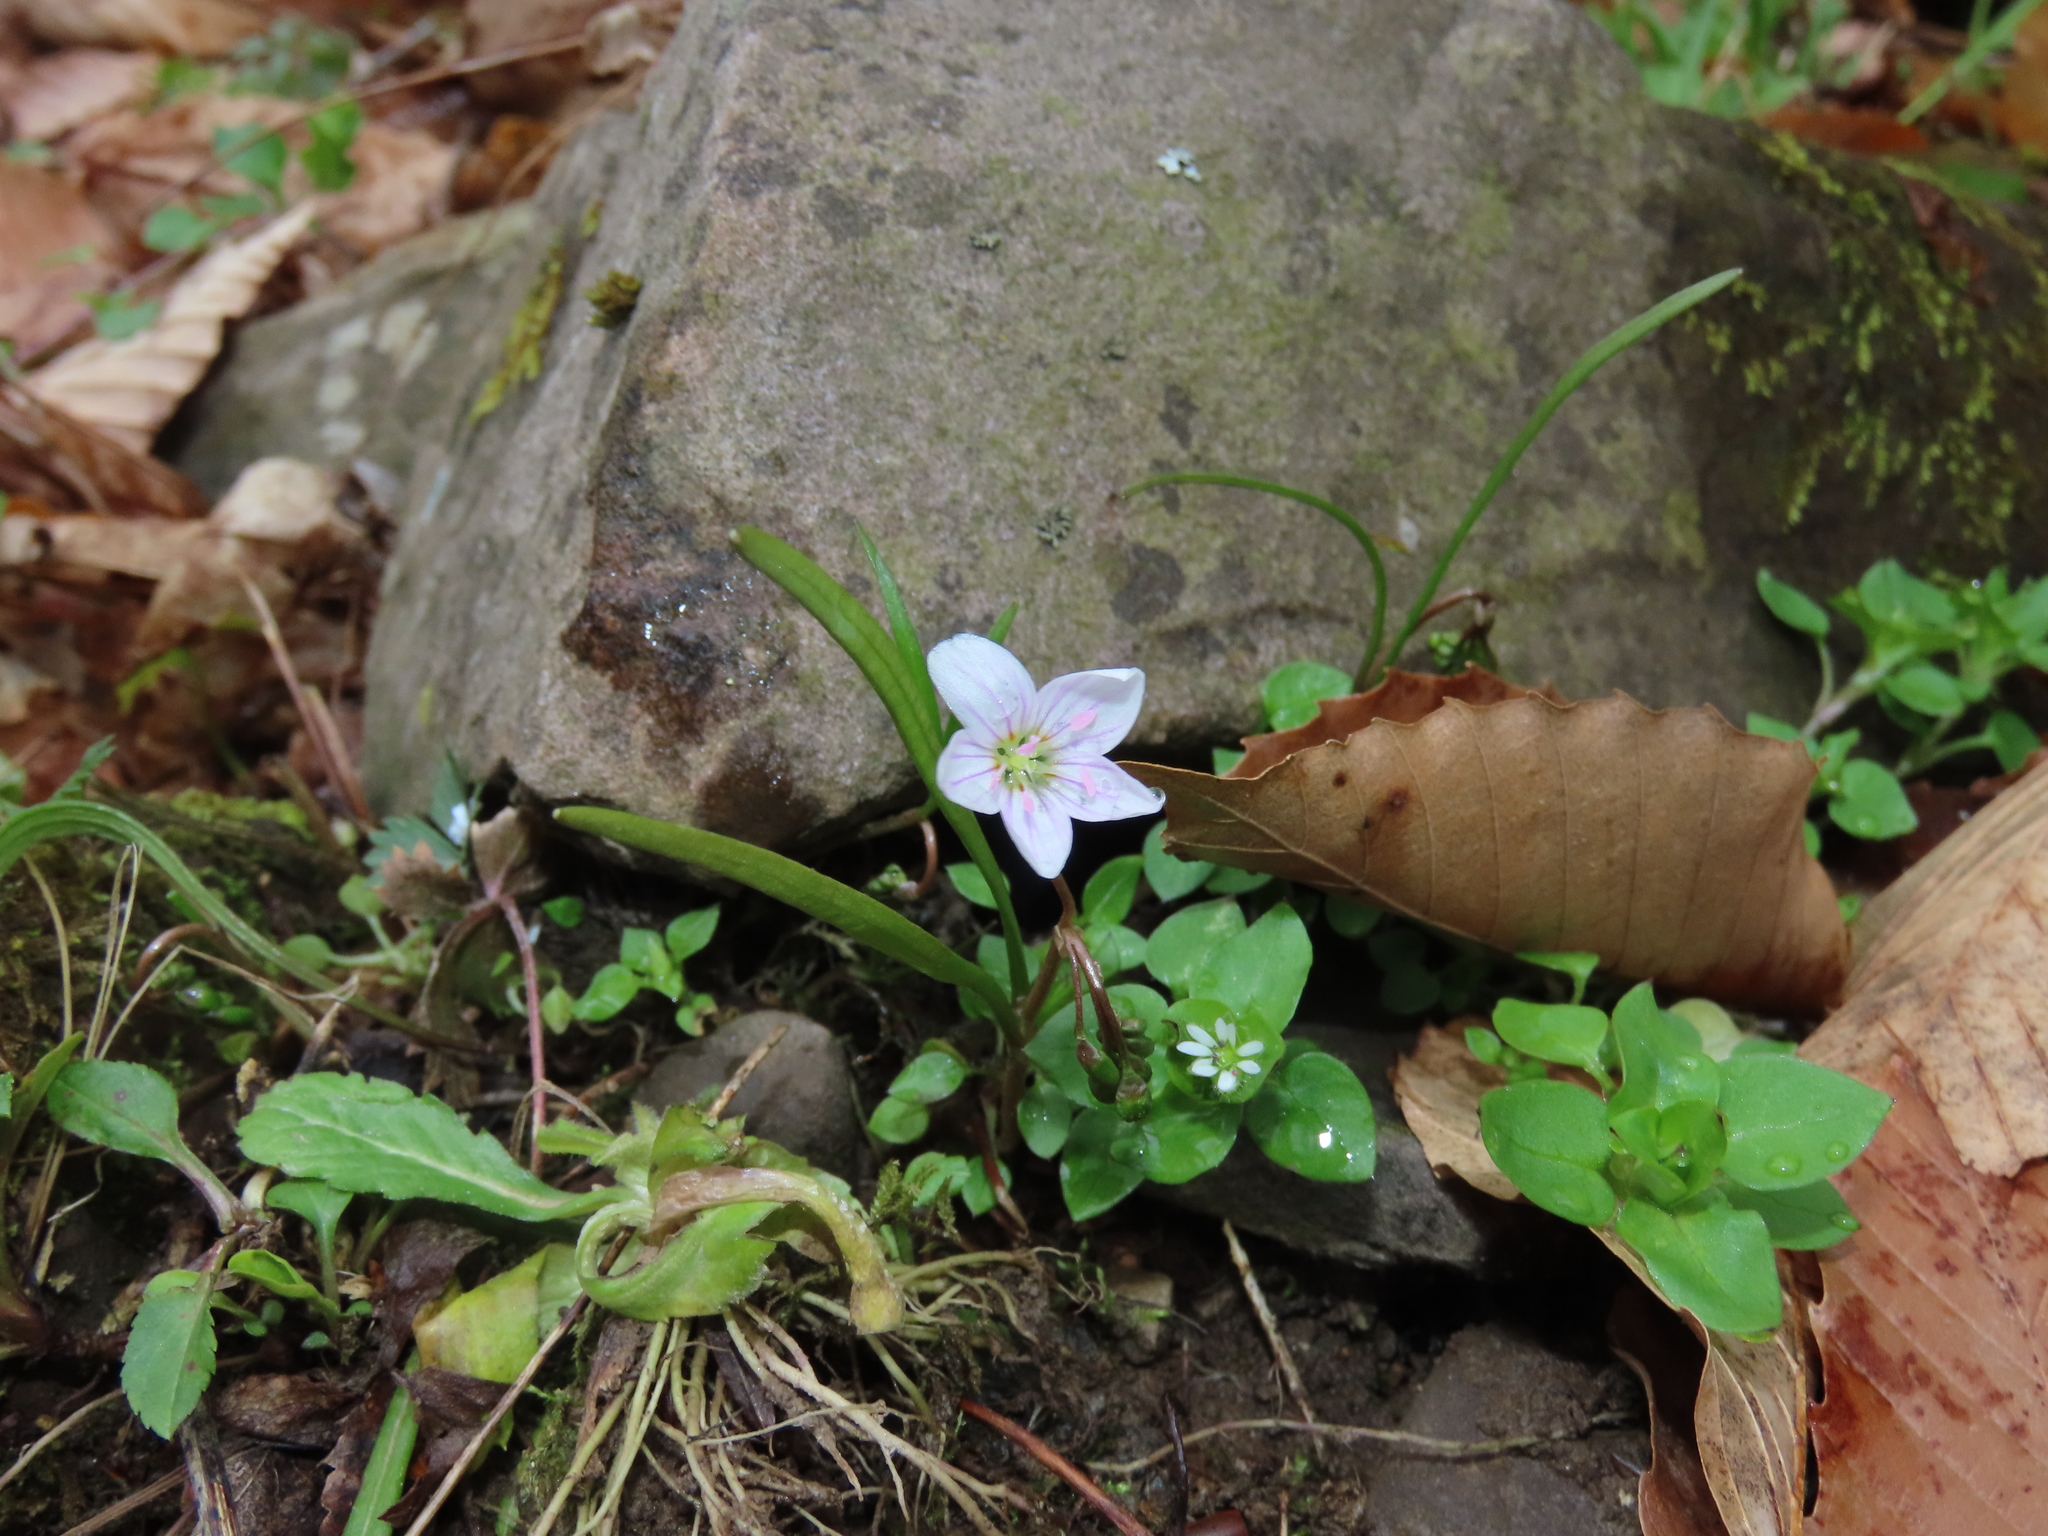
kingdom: Plantae
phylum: Tracheophyta
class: Magnoliopsida
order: Caryophyllales
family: Montiaceae
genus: Claytonia
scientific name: Claytonia virginica
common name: Virginia springbeauty
